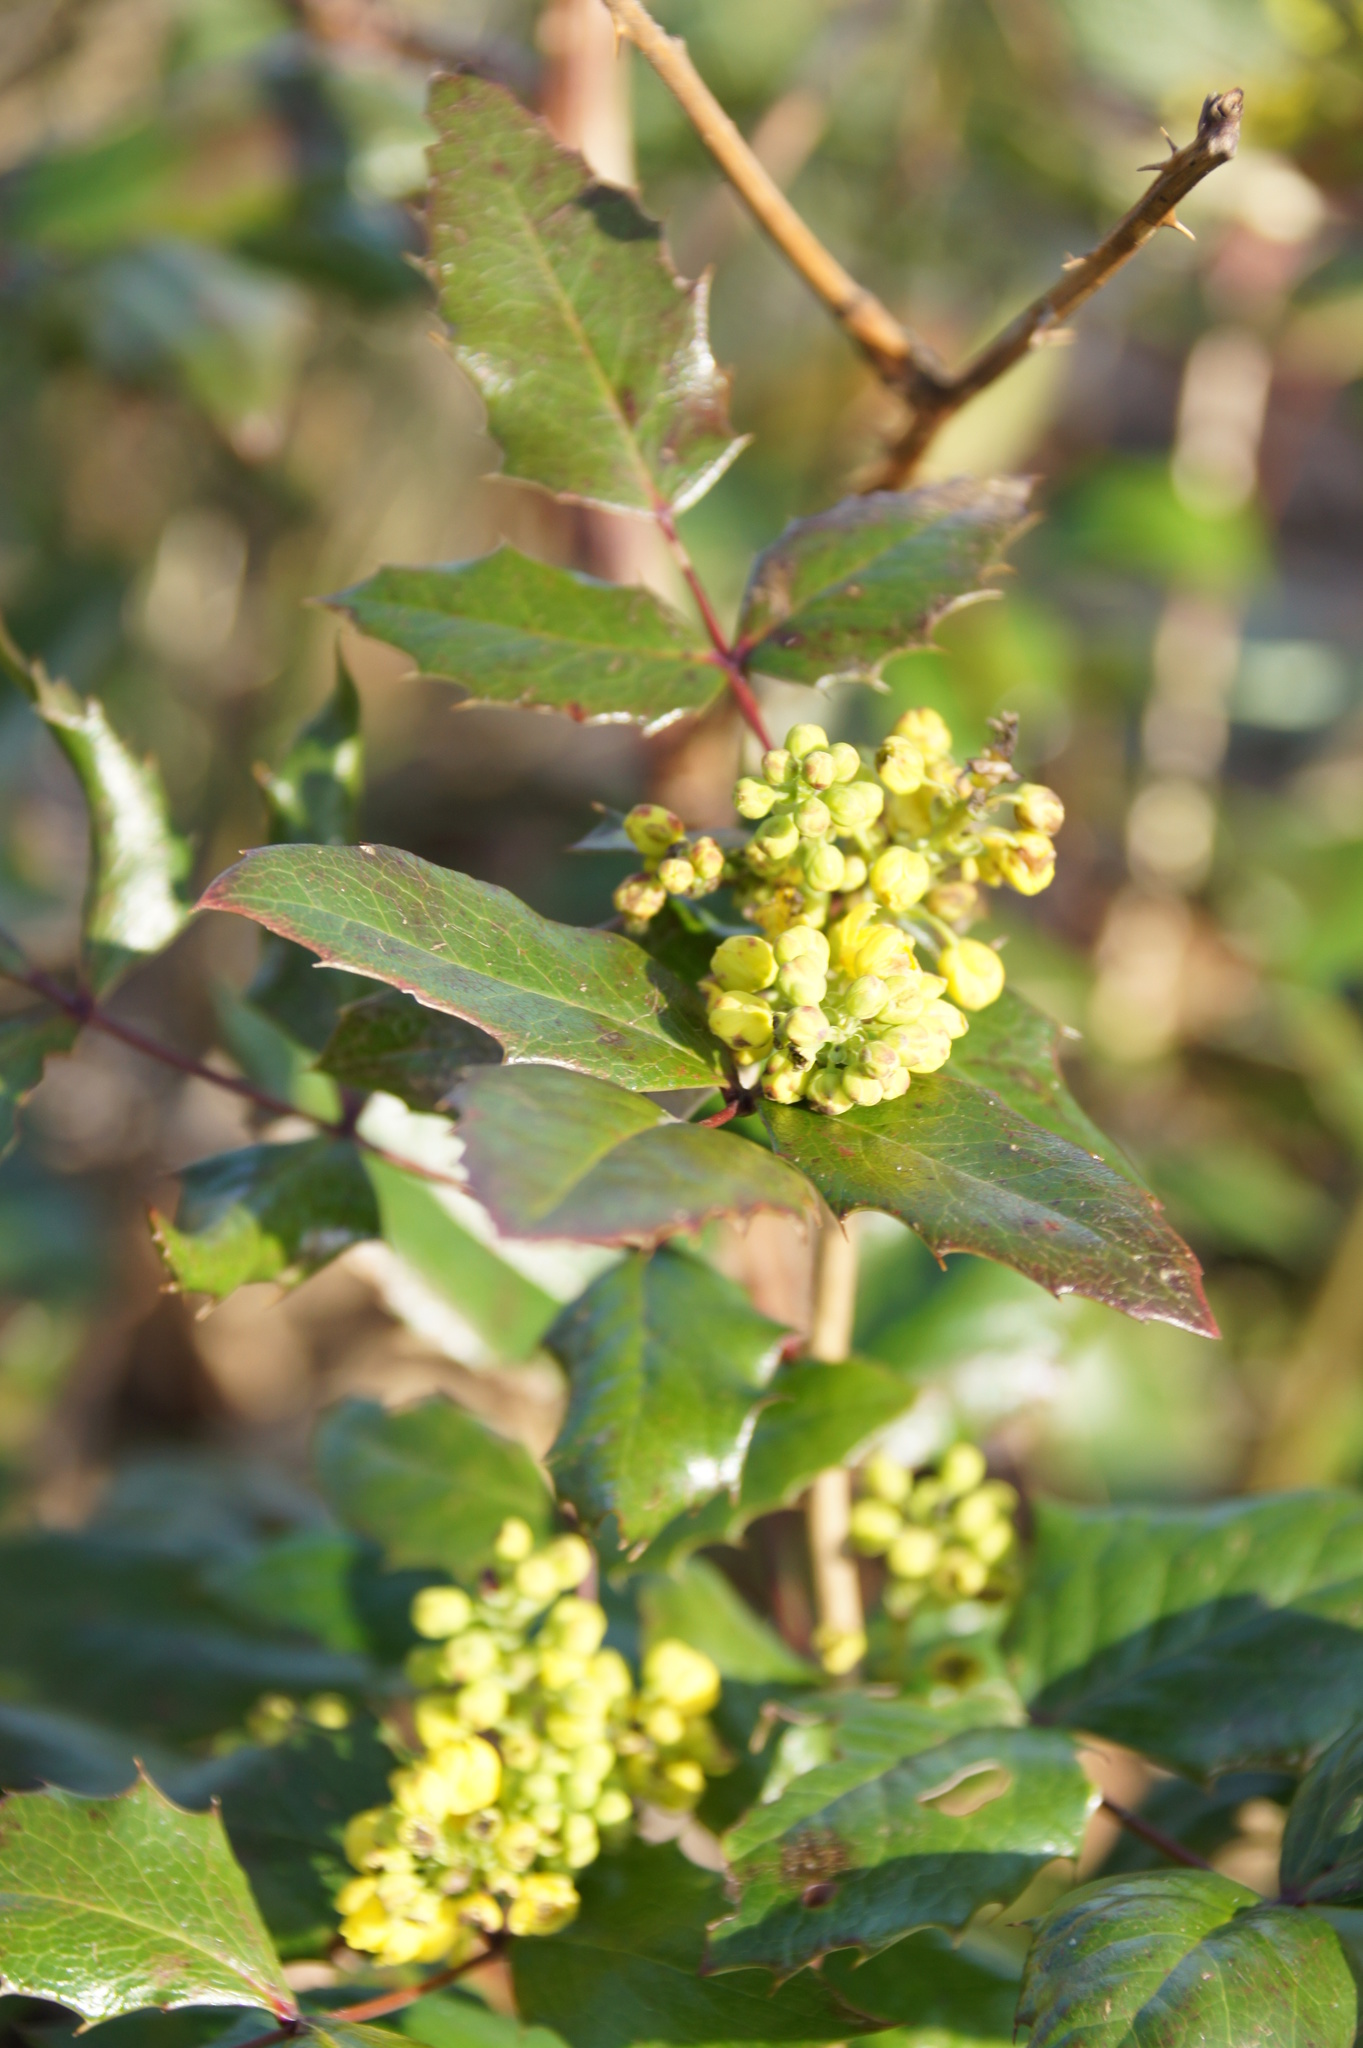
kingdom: Plantae
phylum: Tracheophyta
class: Magnoliopsida
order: Ranunculales
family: Berberidaceae
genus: Mahonia
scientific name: Mahonia aquifolium
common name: Oregon-grape
